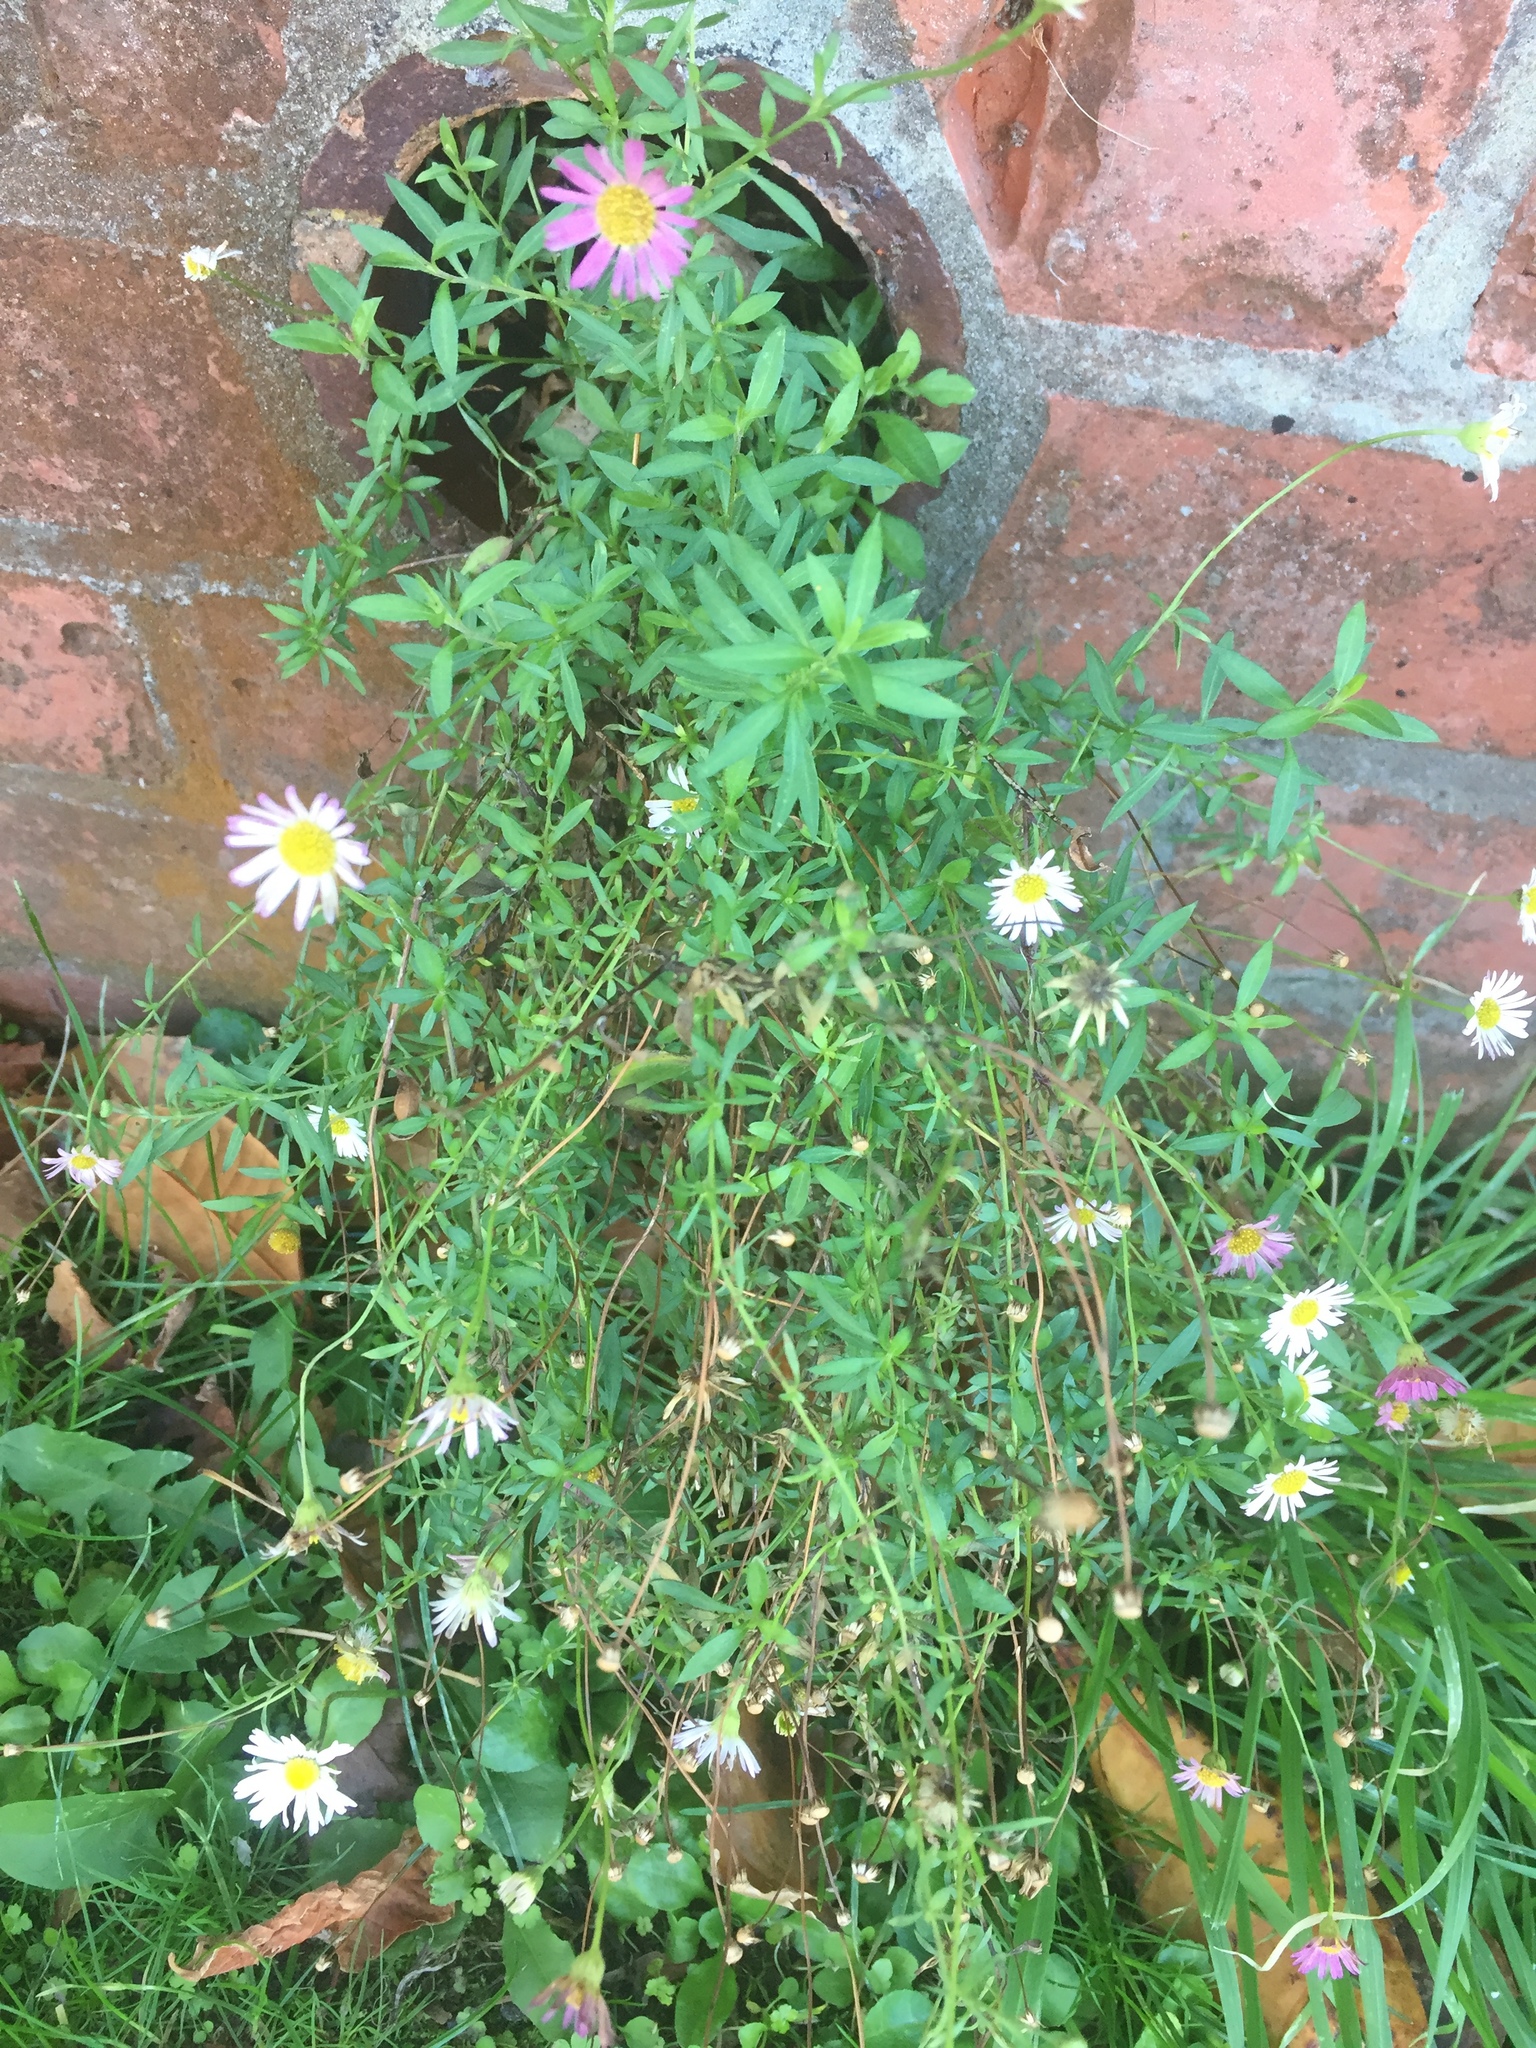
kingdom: Plantae
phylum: Tracheophyta
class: Magnoliopsida
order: Asterales
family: Asteraceae
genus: Erigeron
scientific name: Erigeron karvinskianus
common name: Mexican fleabane
